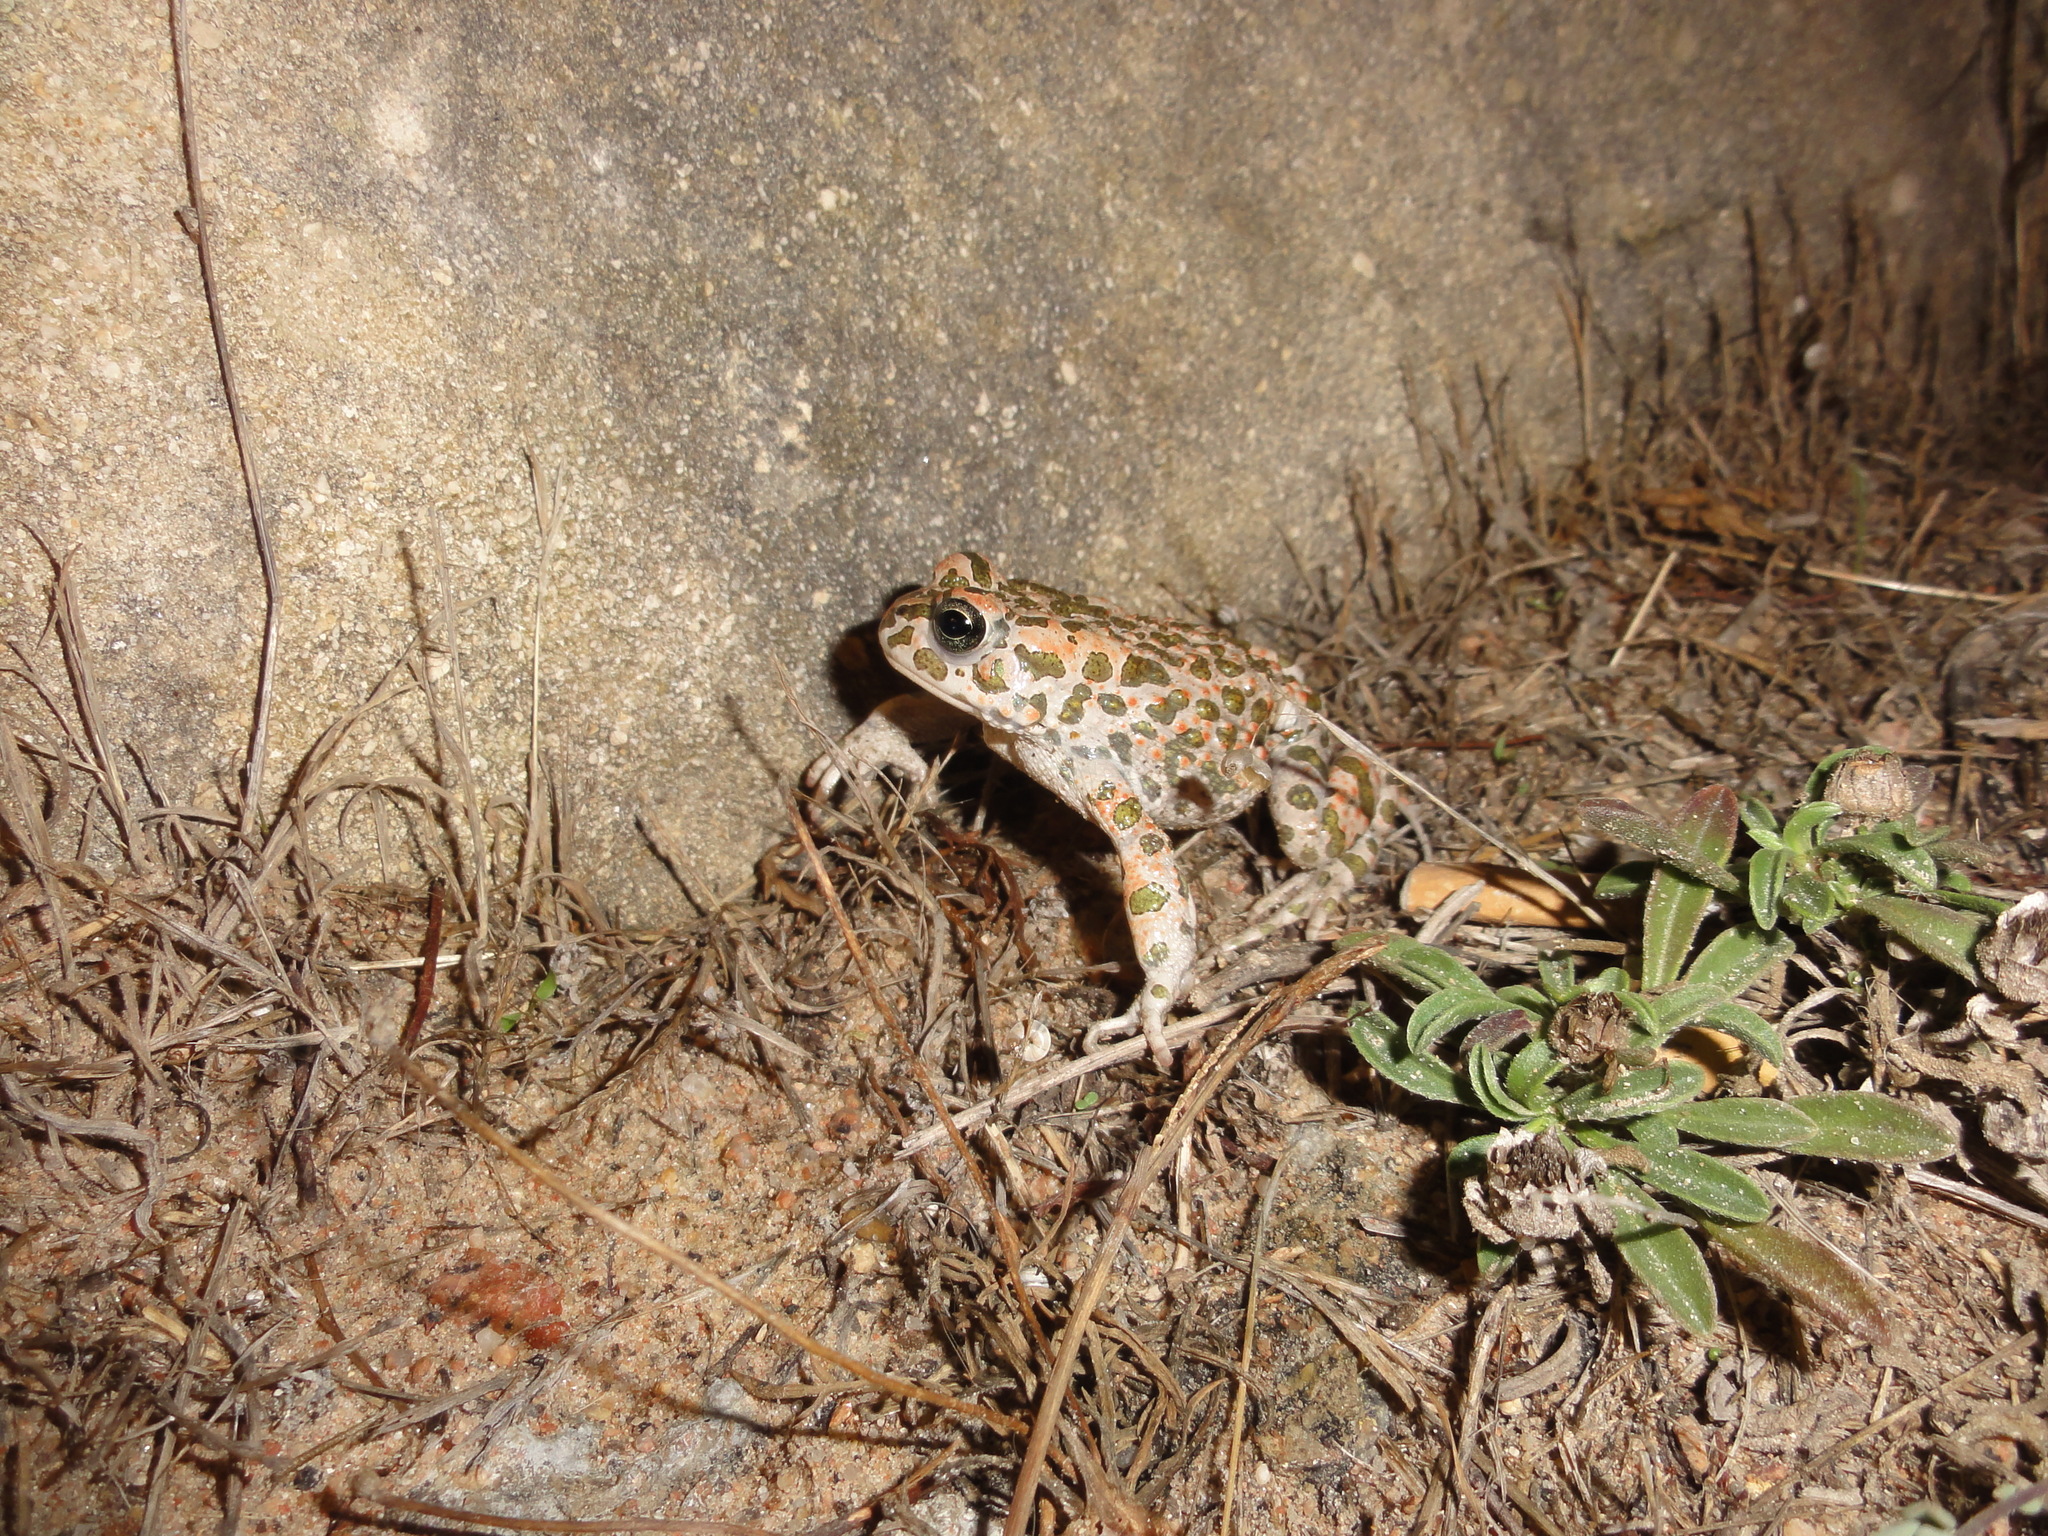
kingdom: Animalia
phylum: Chordata
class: Amphibia
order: Anura
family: Bufonidae
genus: Bufotes
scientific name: Bufotes viridis
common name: European green toad
